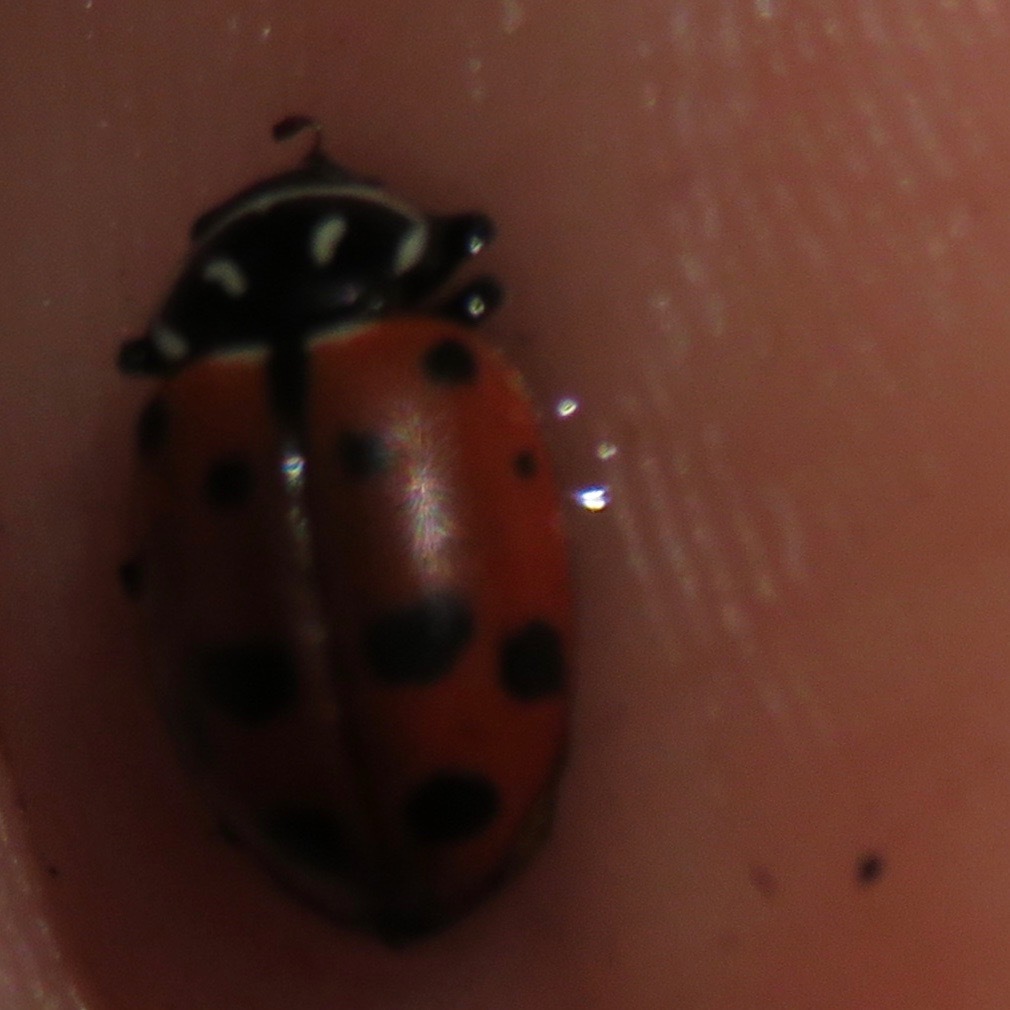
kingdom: Animalia
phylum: Arthropoda
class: Insecta
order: Coleoptera
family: Coccinellidae
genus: Hippodamia
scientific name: Hippodamia convergens
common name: Convergent lady beetle
